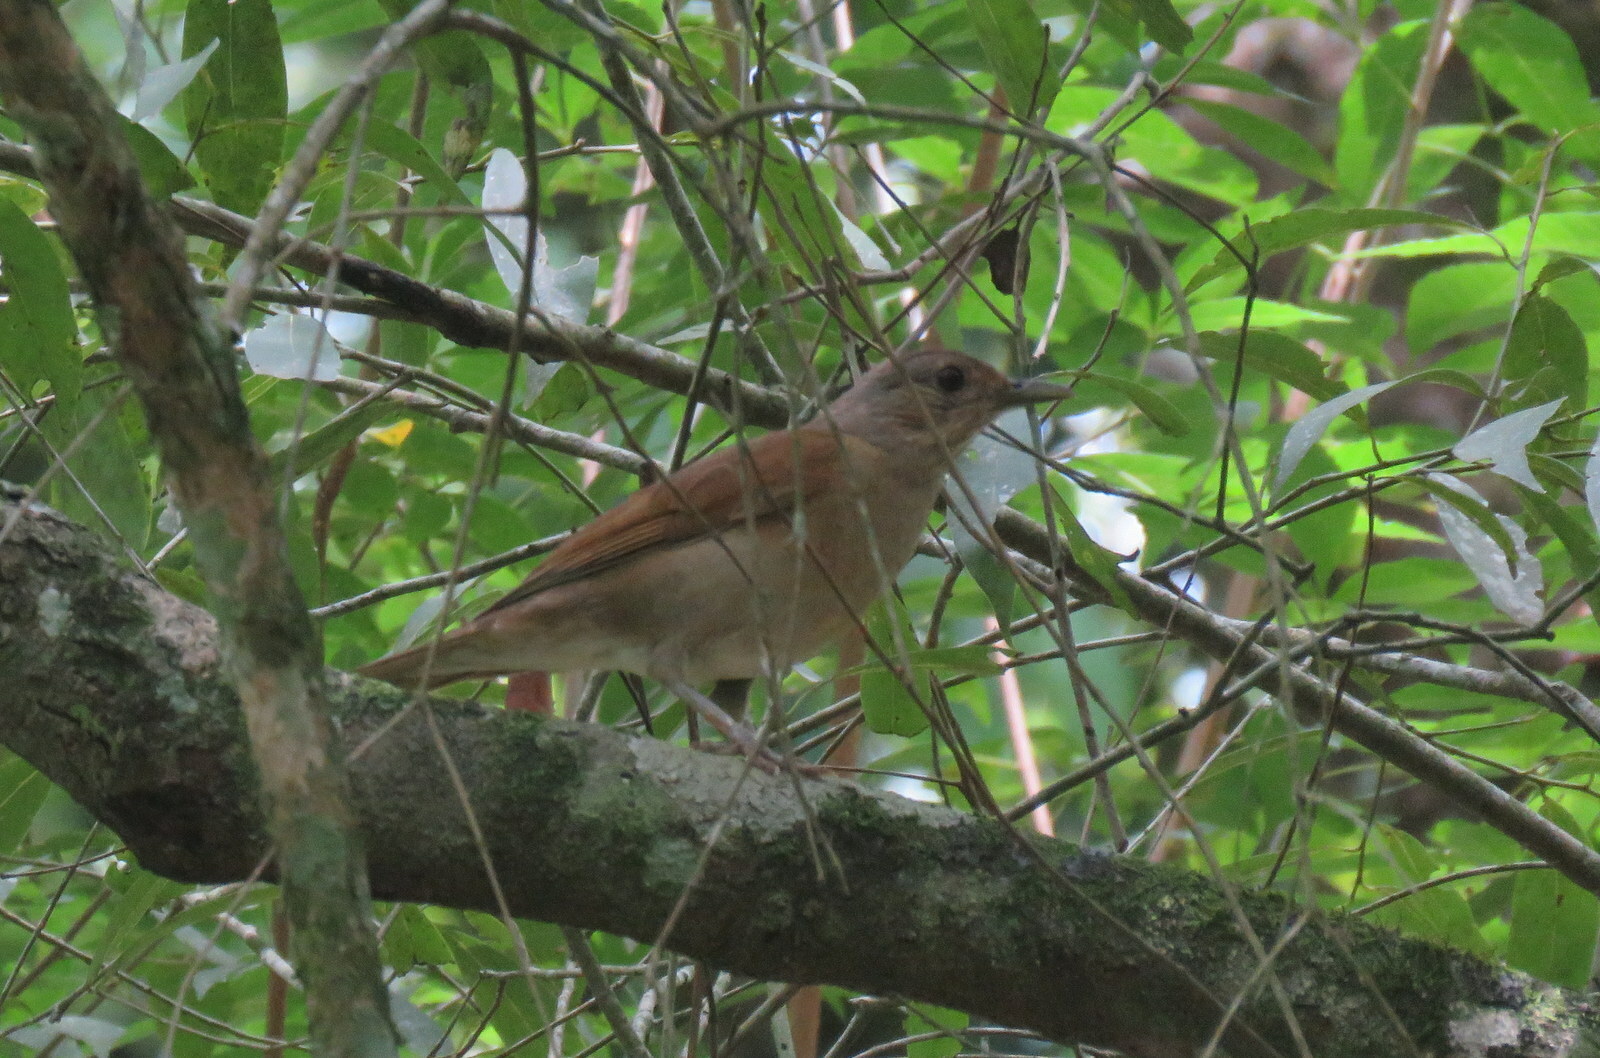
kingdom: Animalia
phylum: Chordata
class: Aves
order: Passeriformes
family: Turdidae
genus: Turdus
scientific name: Turdus leucomelas
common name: Pale-breasted thrush
